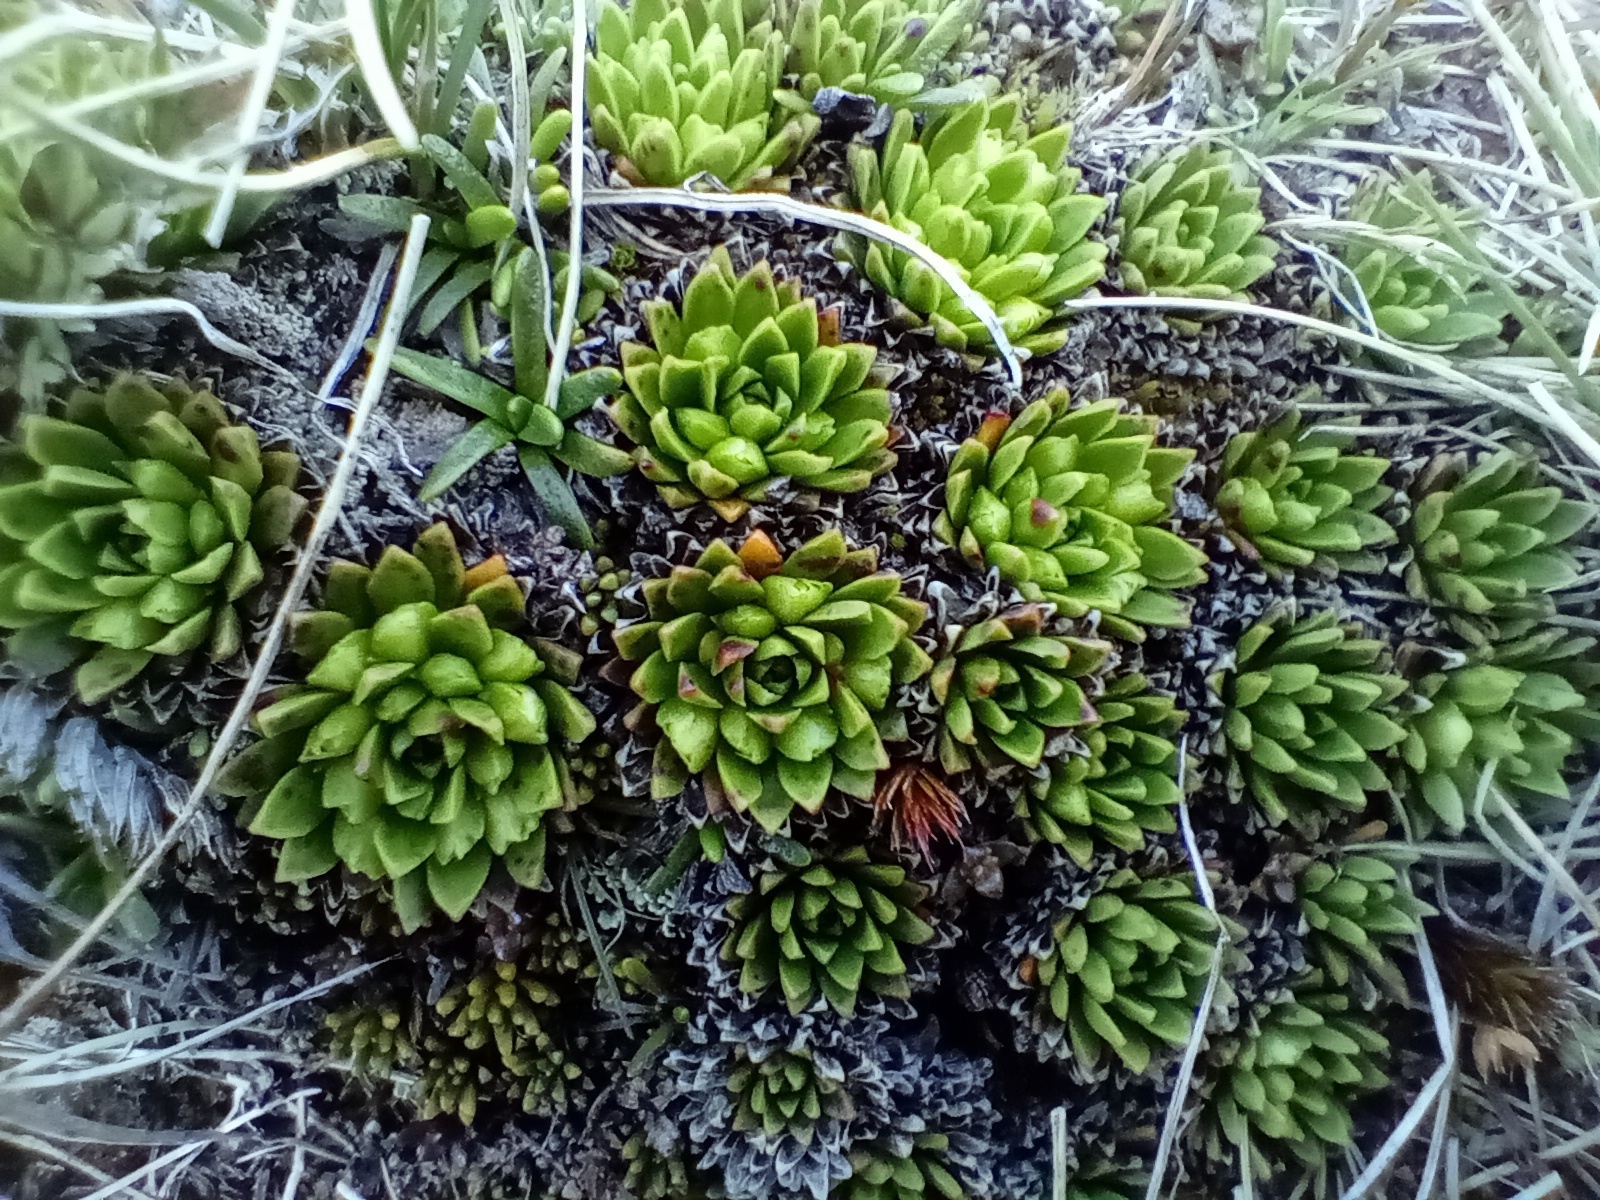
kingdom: Plantae
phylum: Tracheophyta
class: Magnoliopsida
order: Caryophyllales
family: Montiaceae
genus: Hectorella
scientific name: Hectorella caespitosa
